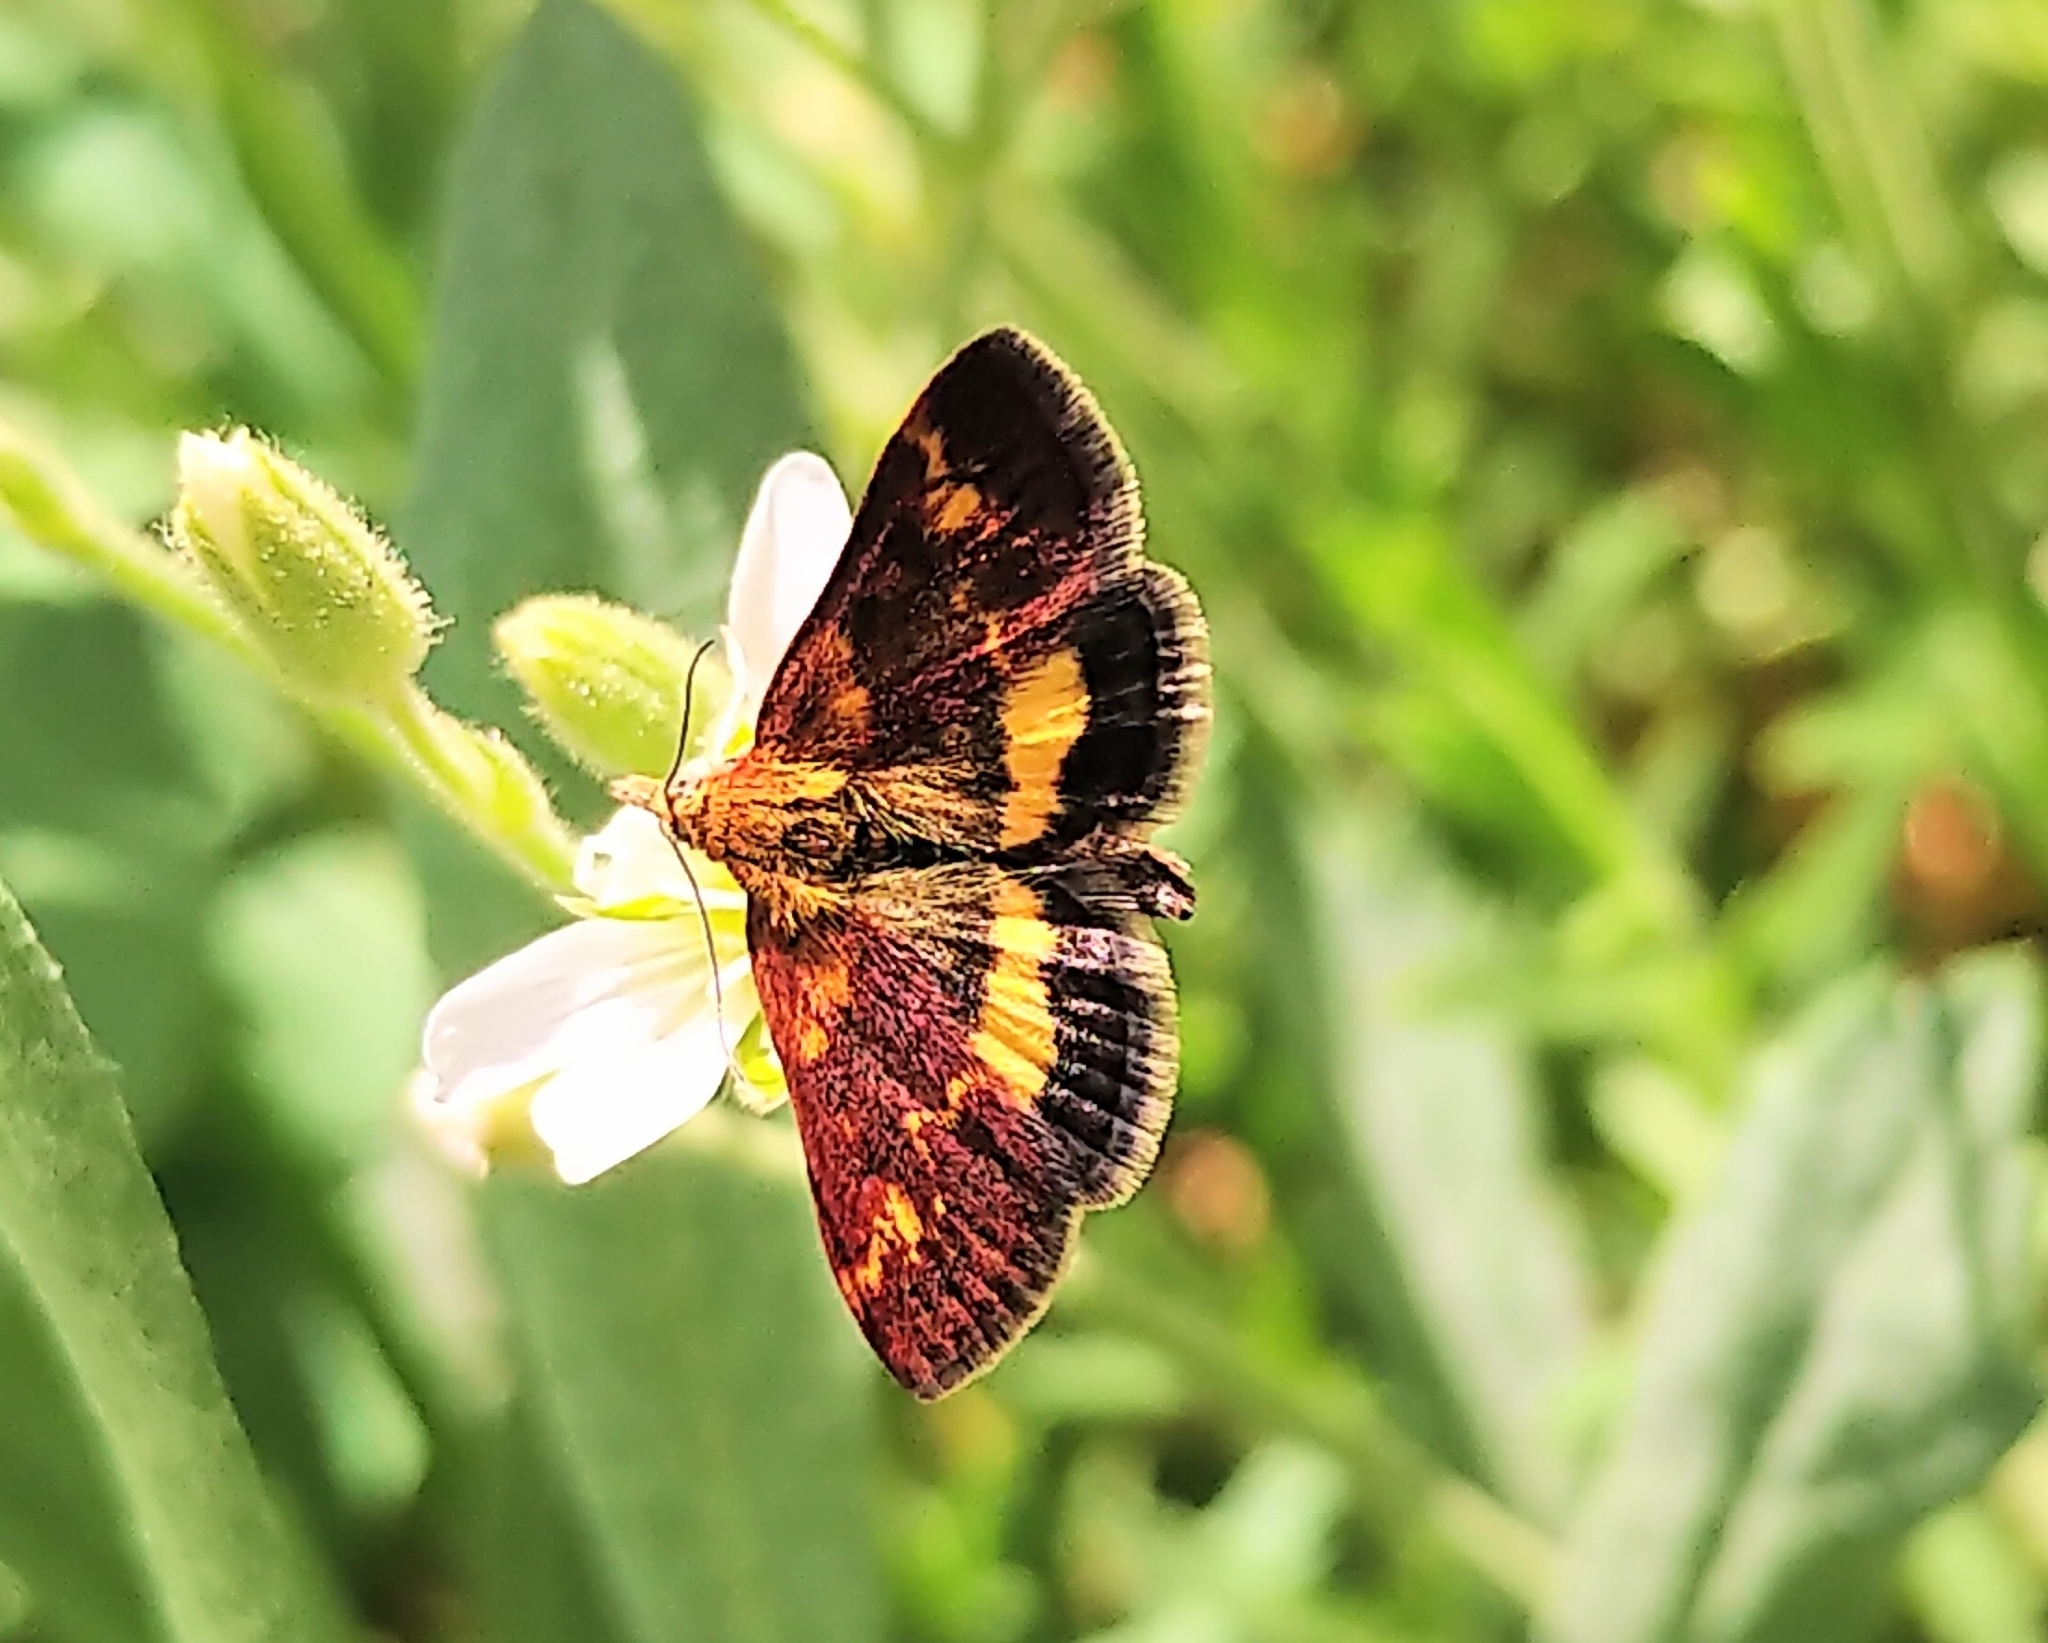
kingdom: Animalia
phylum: Arthropoda
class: Insecta
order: Lepidoptera
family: Crambidae
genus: Pyrausta
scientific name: Pyrausta orphisalis
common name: Orange mint moth
